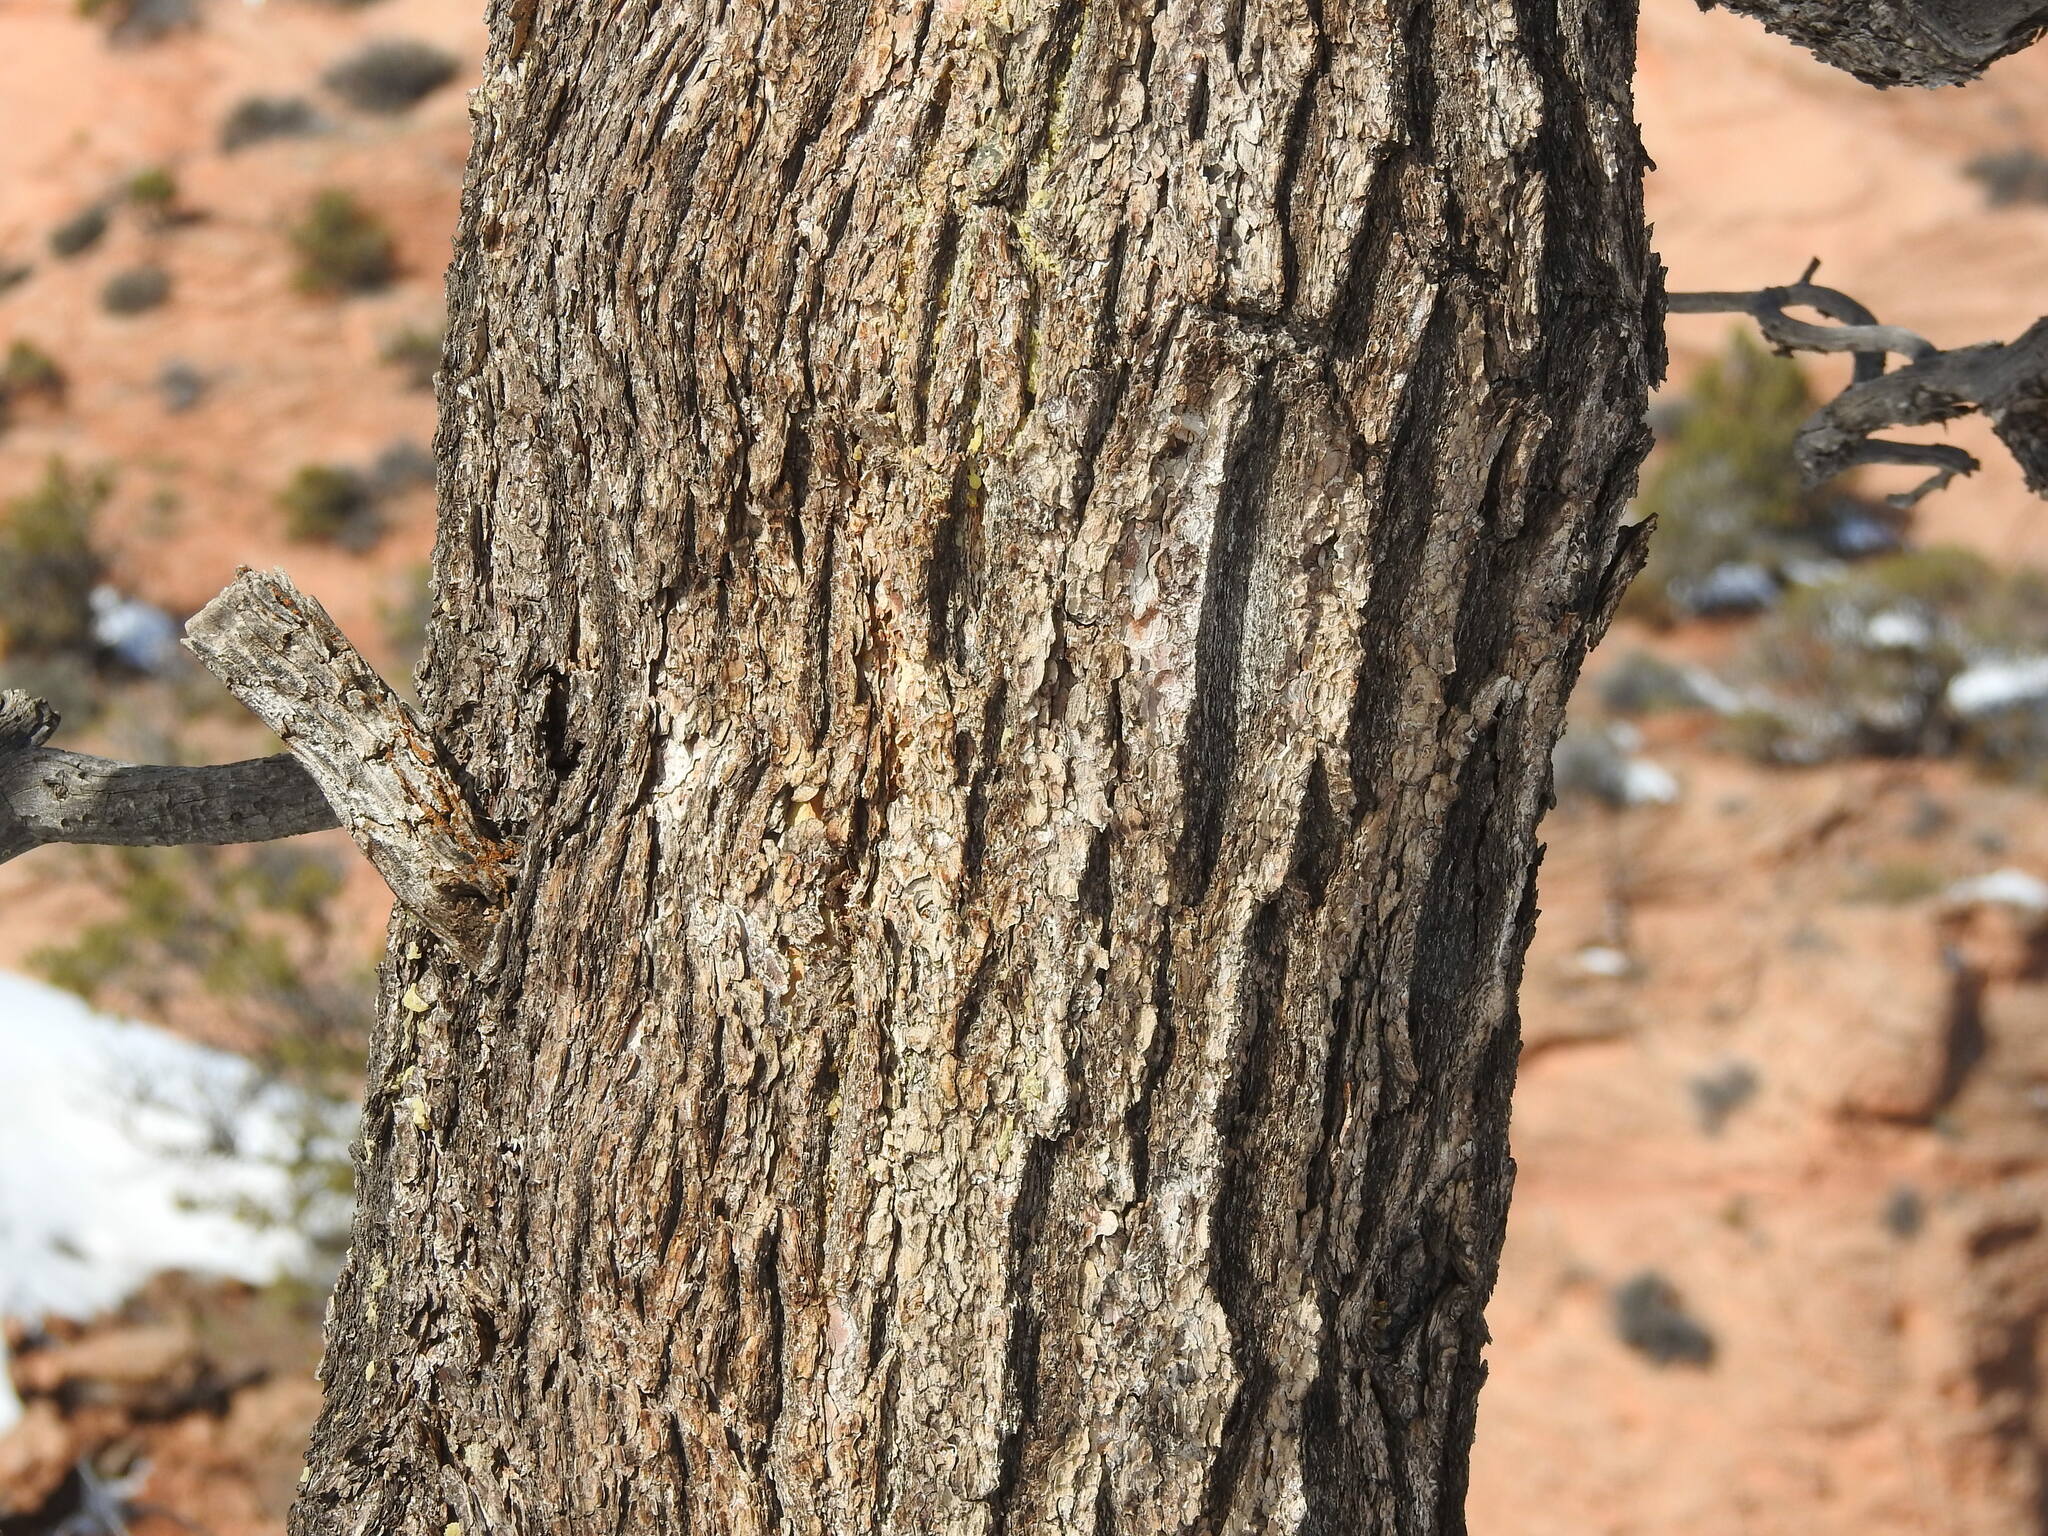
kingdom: Plantae
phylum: Tracheophyta
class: Pinopsida
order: Pinales
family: Pinaceae
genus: Pinus
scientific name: Pinus edulis
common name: Colorado pinyon
